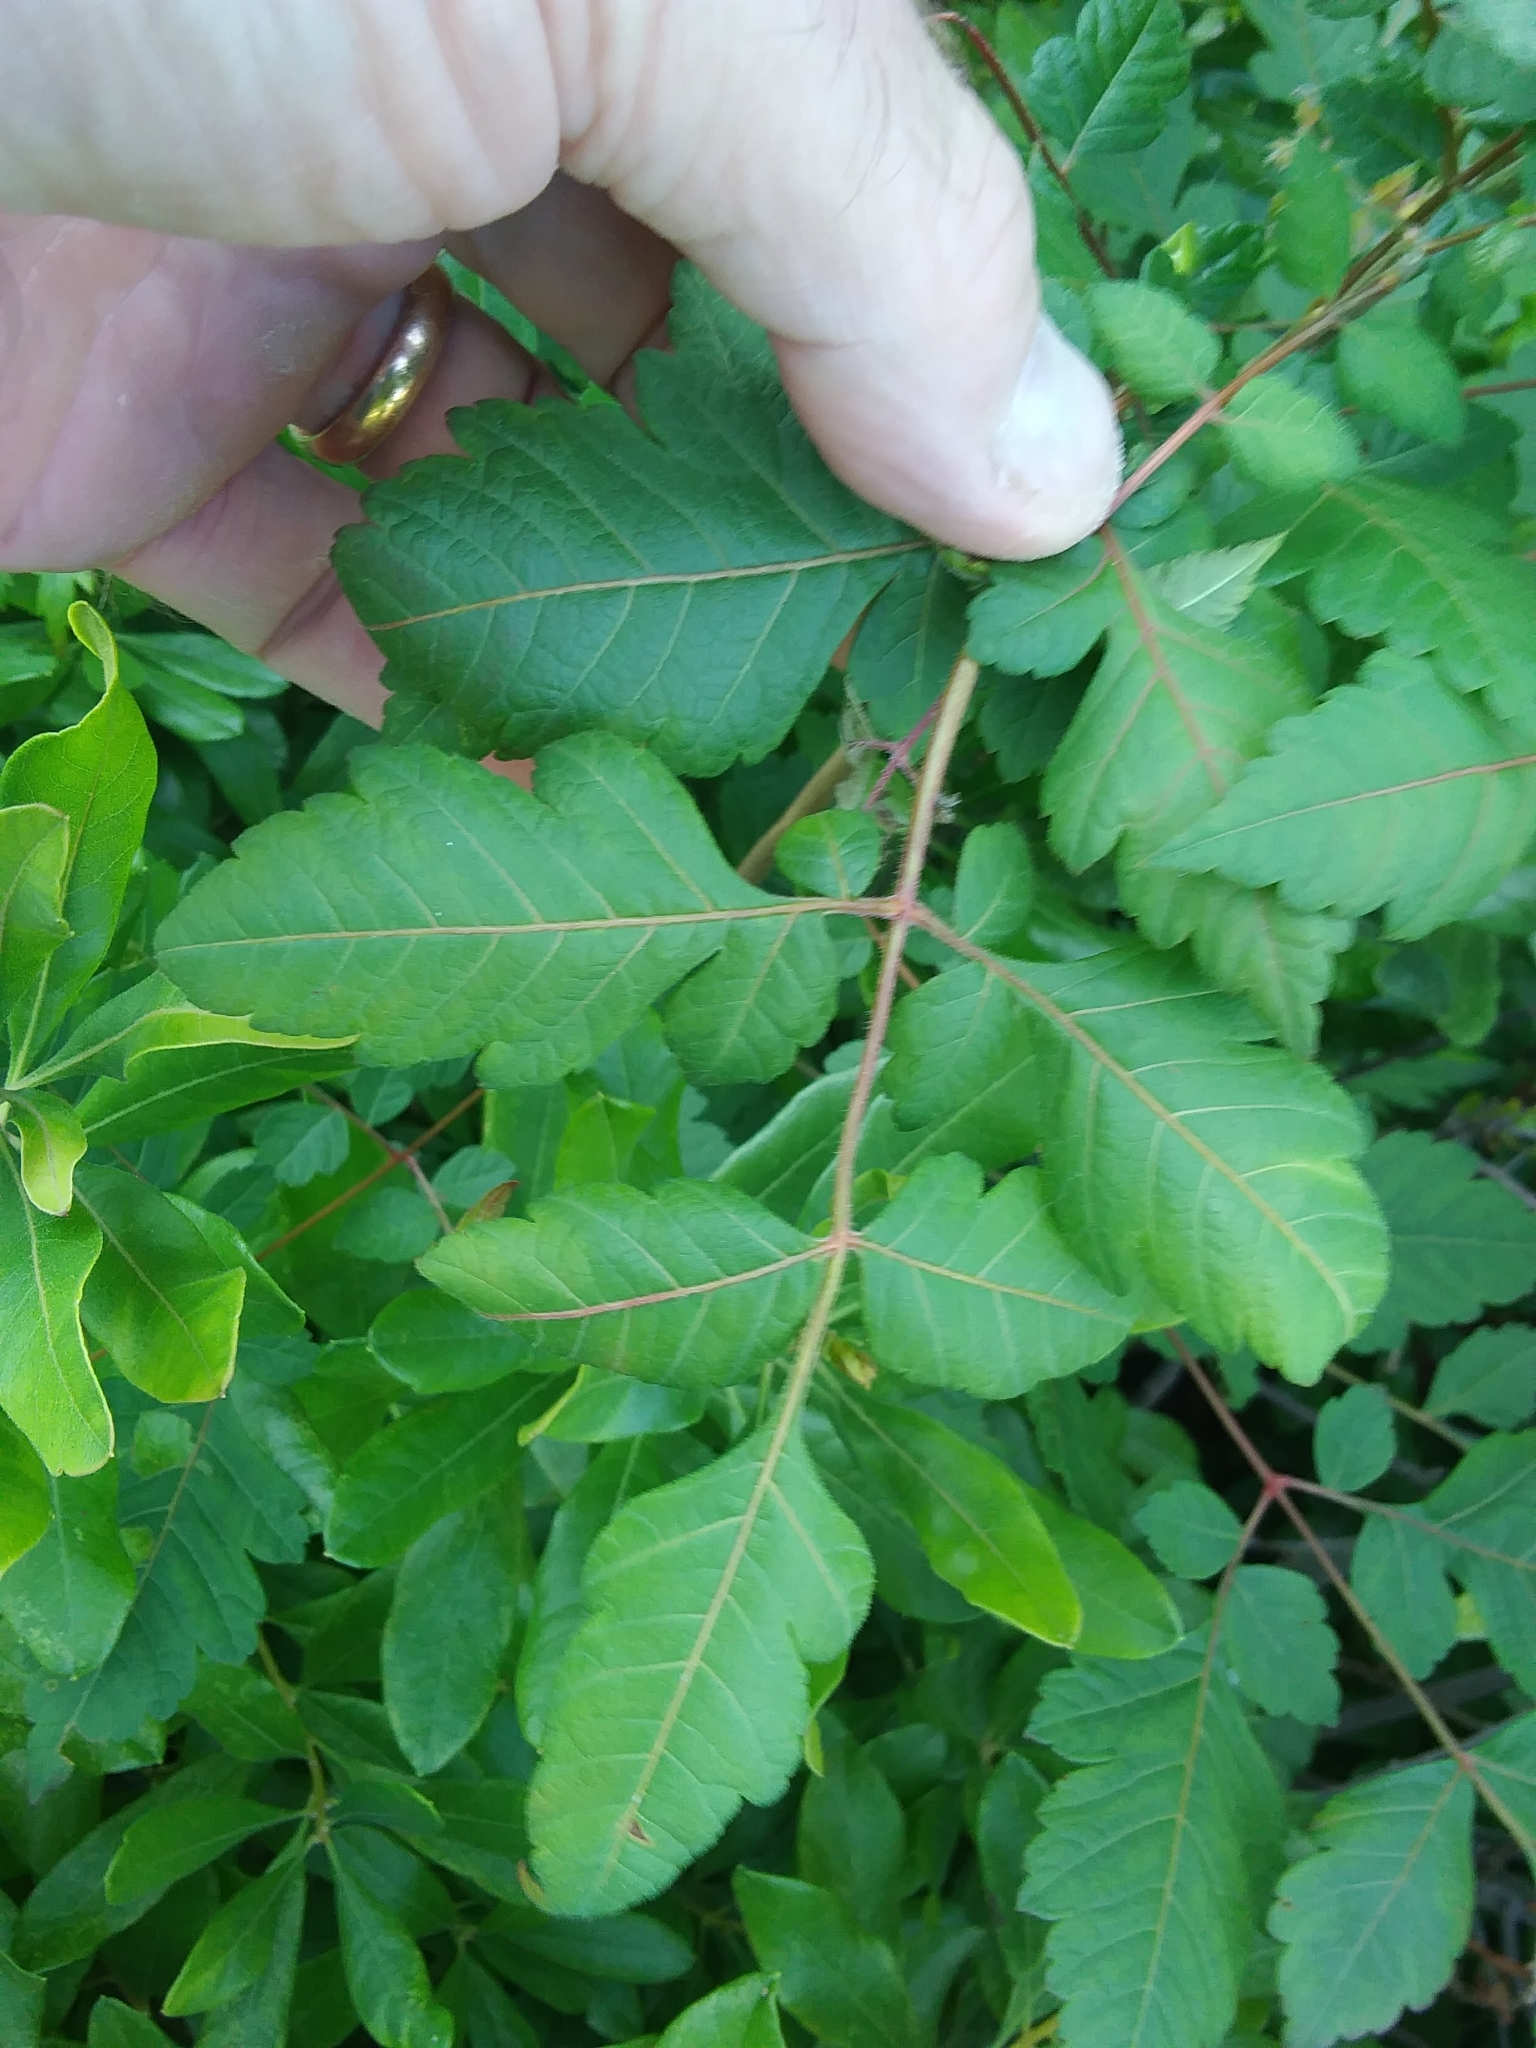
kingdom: Plantae
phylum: Tracheophyta
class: Magnoliopsida
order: Sapindales
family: Sapindaceae
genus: Koelreuteria
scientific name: Koelreuteria paniculata
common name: Pride-of-india
